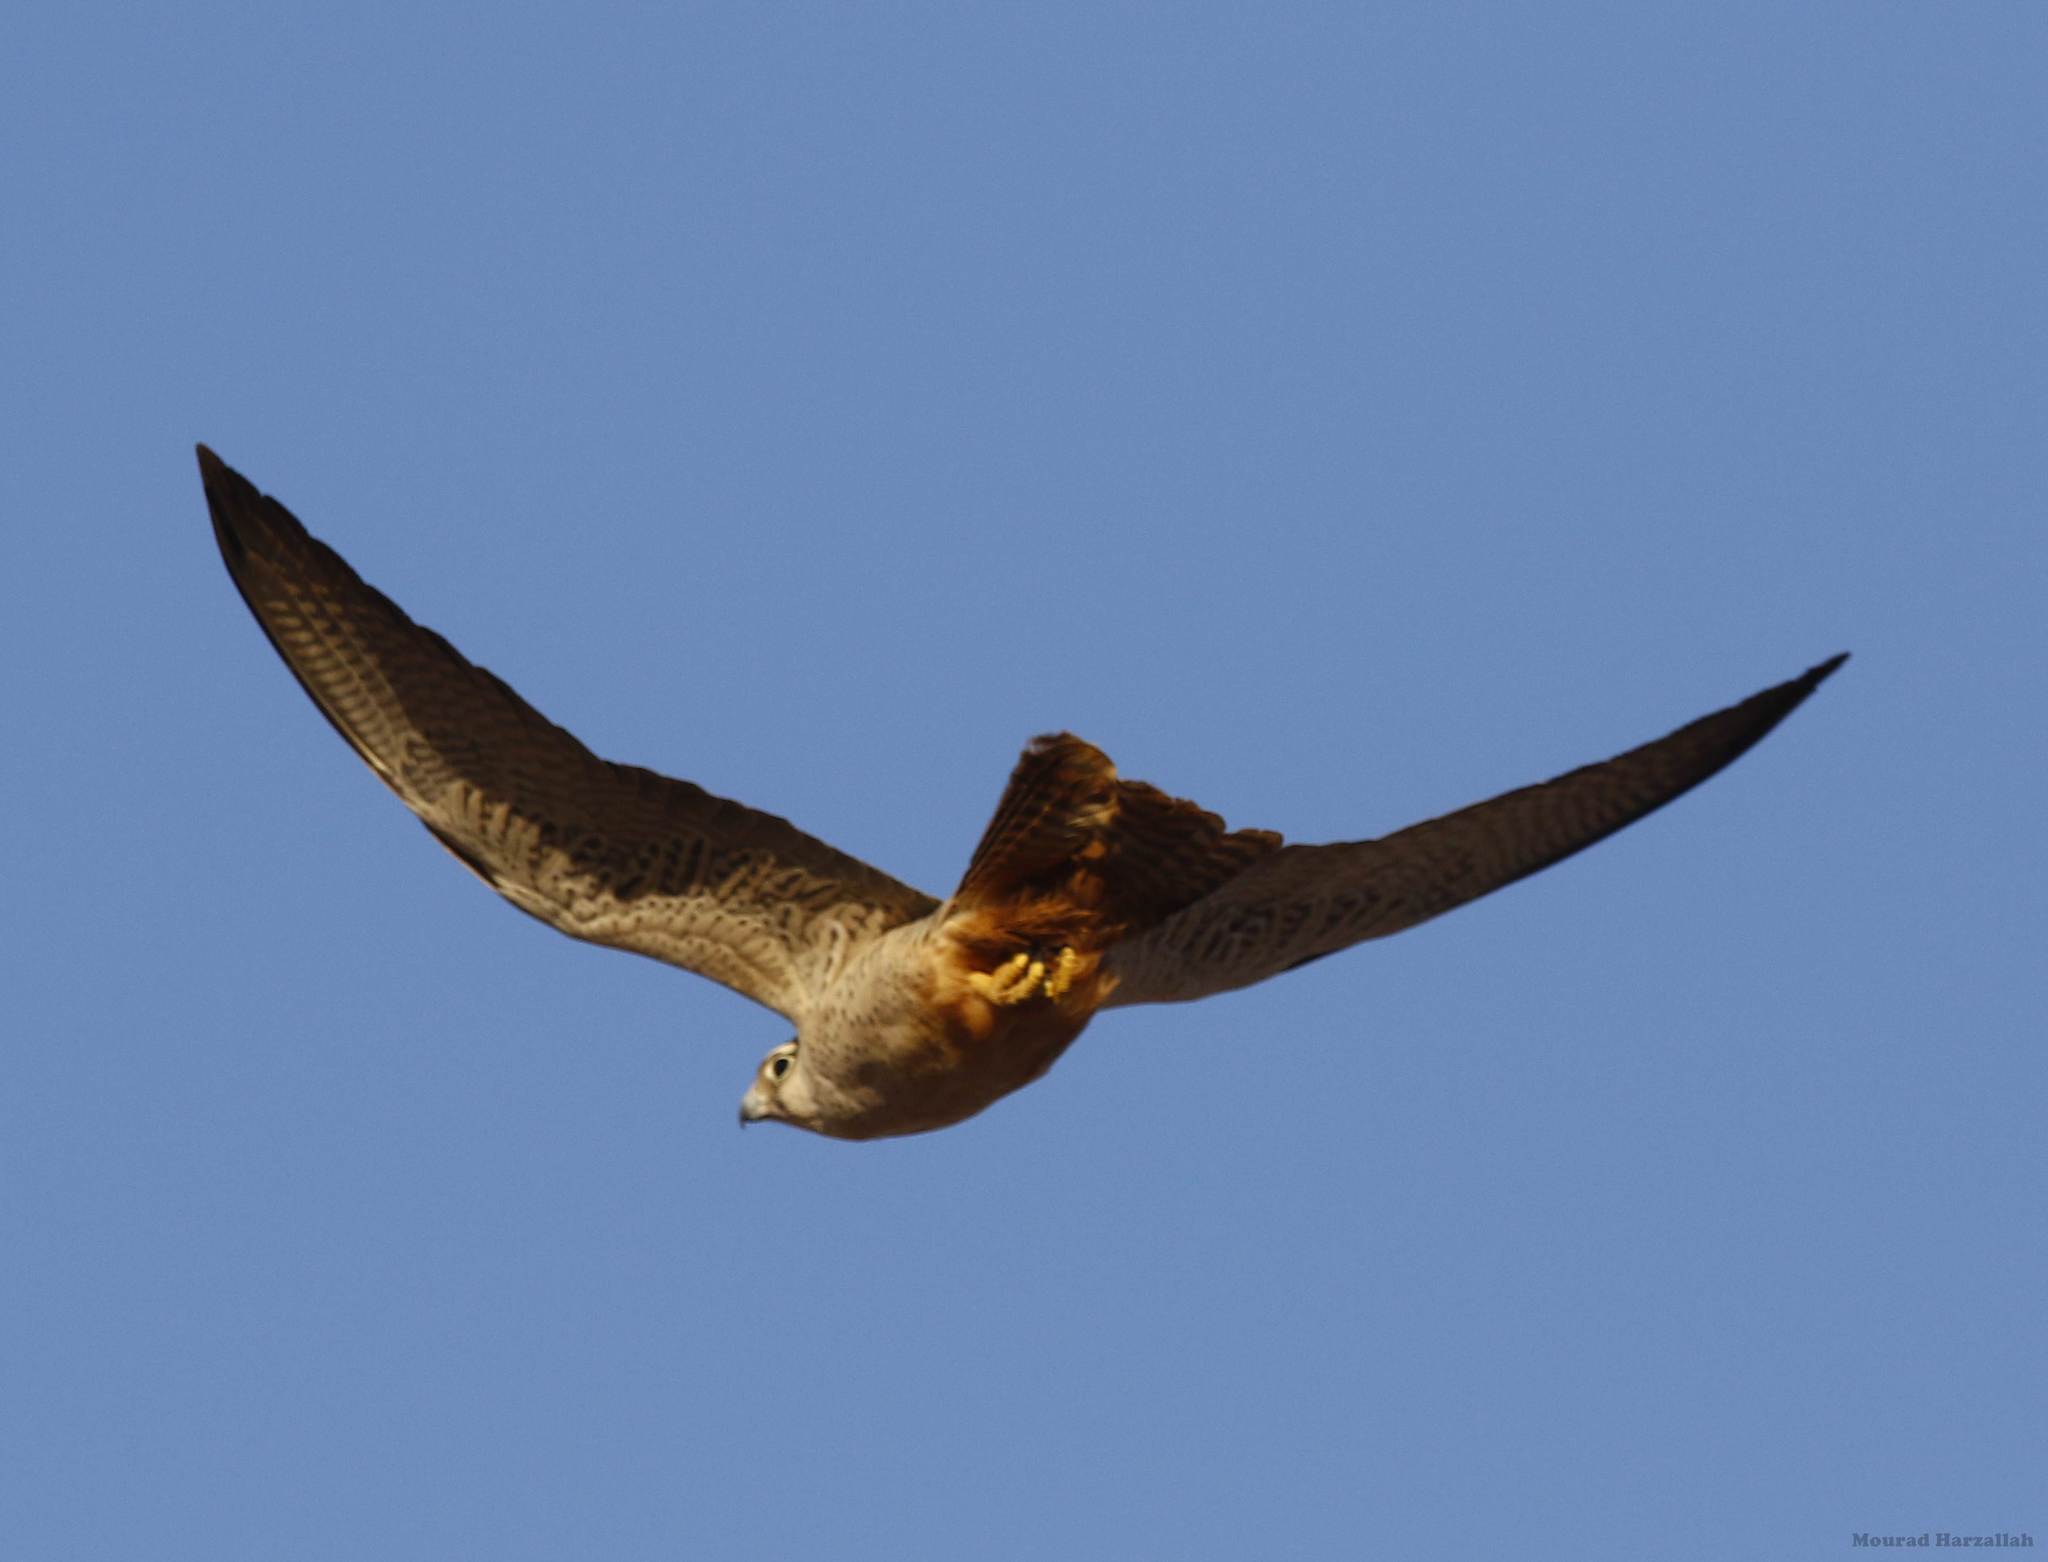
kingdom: Animalia
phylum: Chordata
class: Aves
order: Falconiformes
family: Falconidae
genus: Falco
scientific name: Falco biarmicus
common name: Lanner falcon
